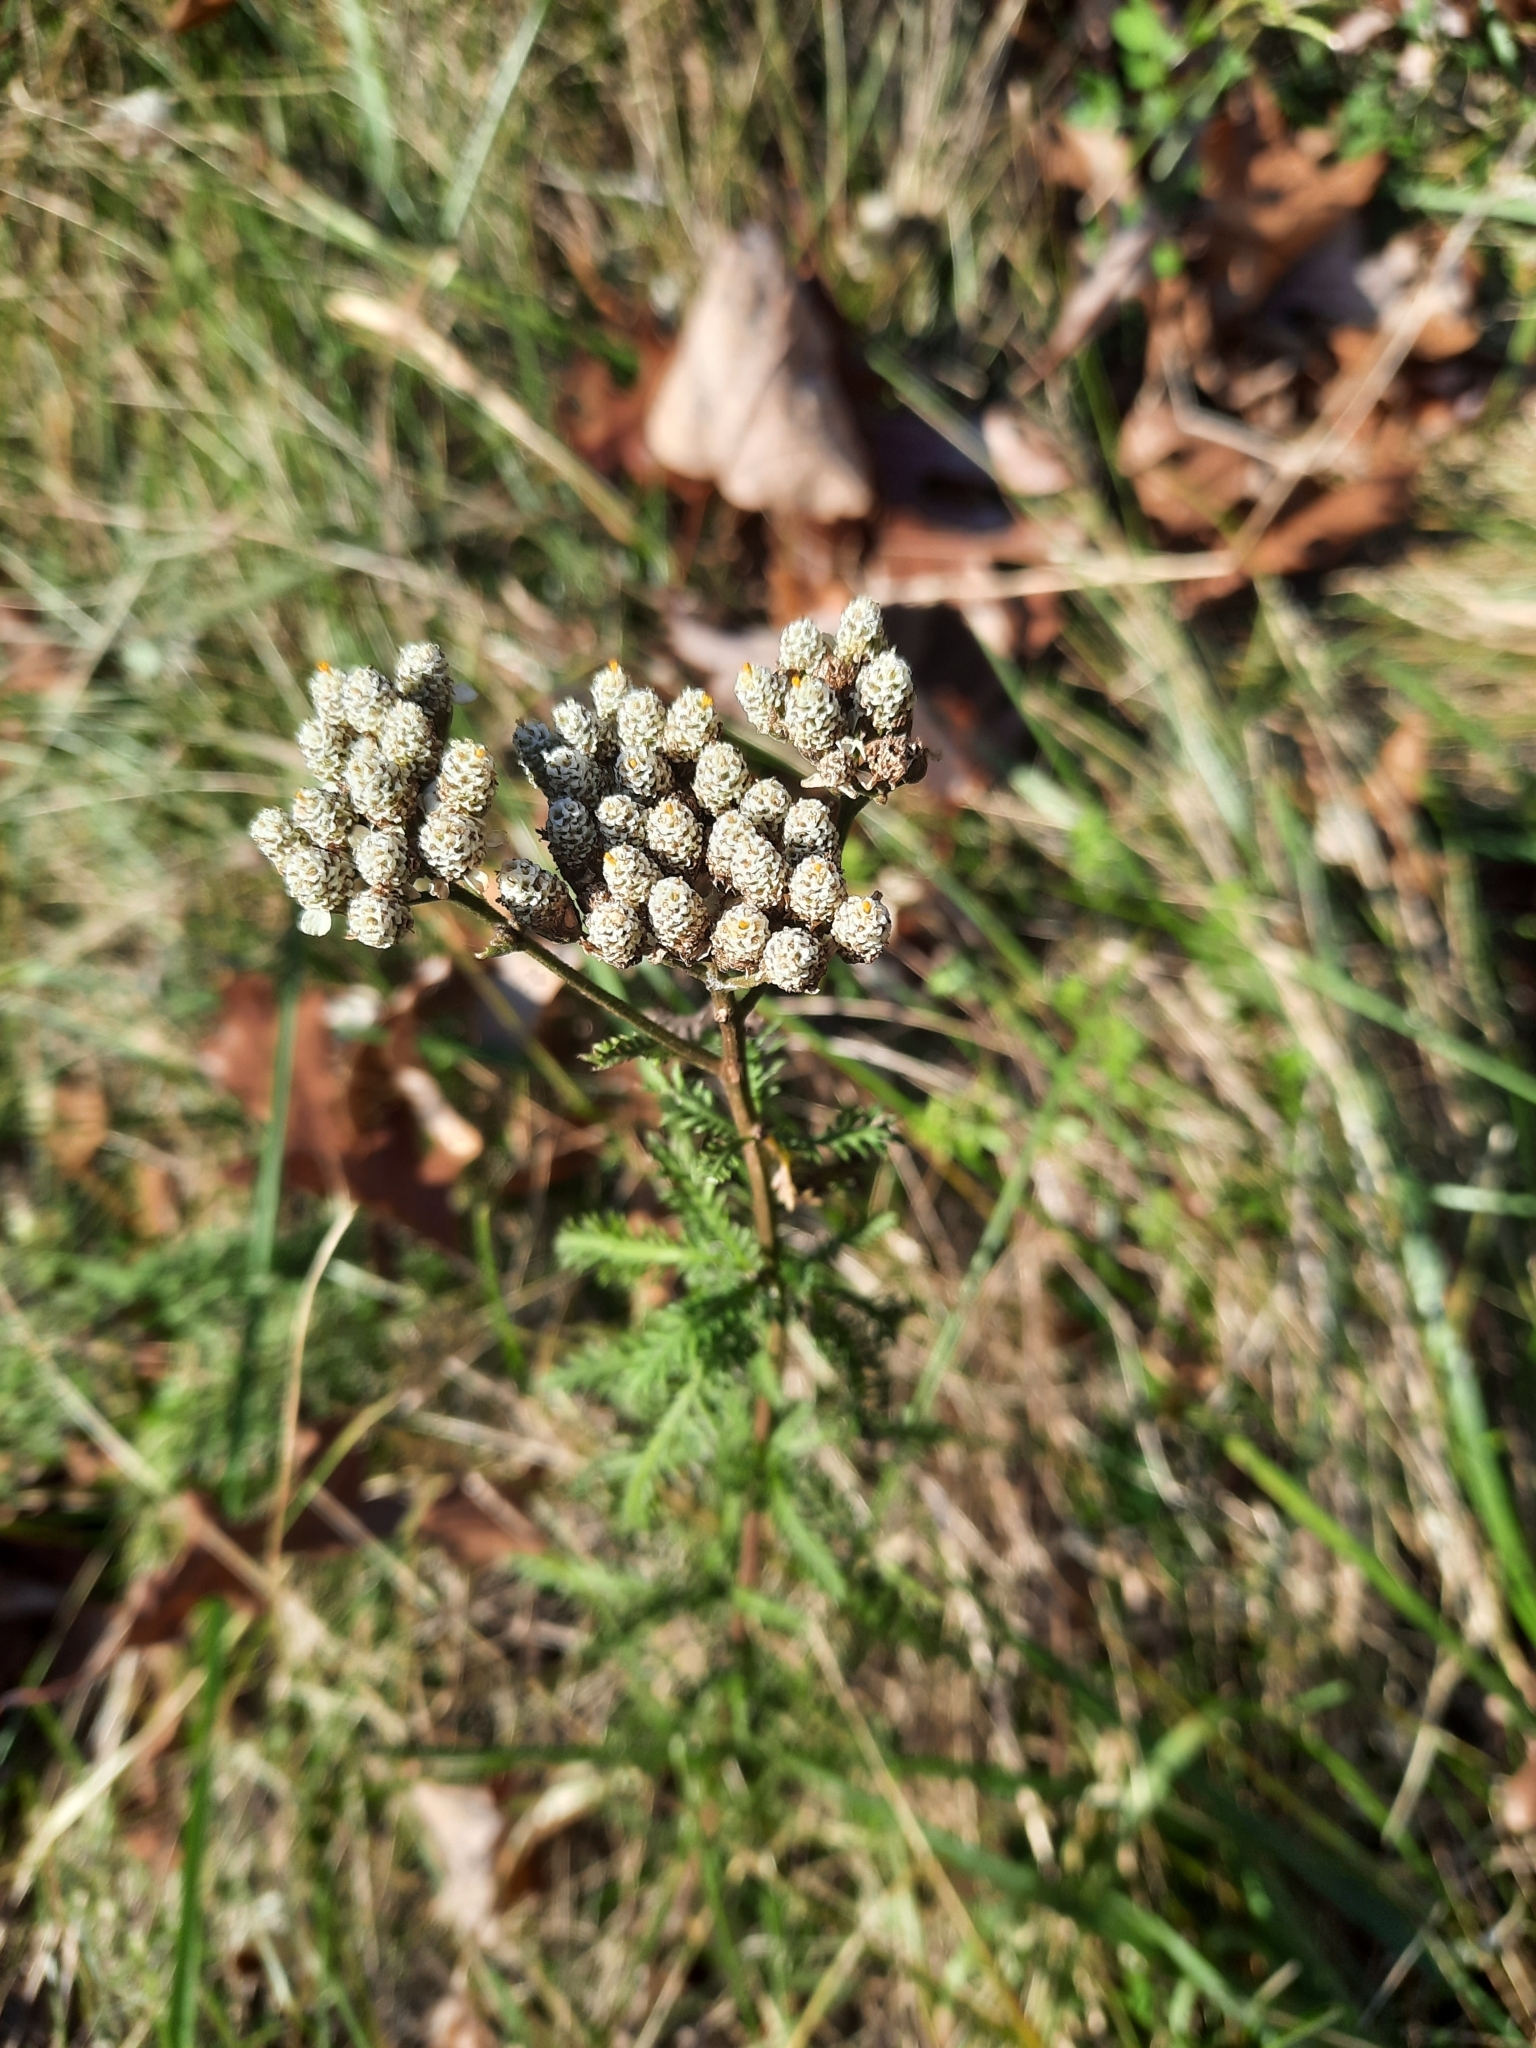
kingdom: Plantae
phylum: Tracheophyta
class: Magnoliopsida
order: Asterales
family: Asteraceae
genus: Achillea
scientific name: Achillea millefolium
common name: Yarrow
